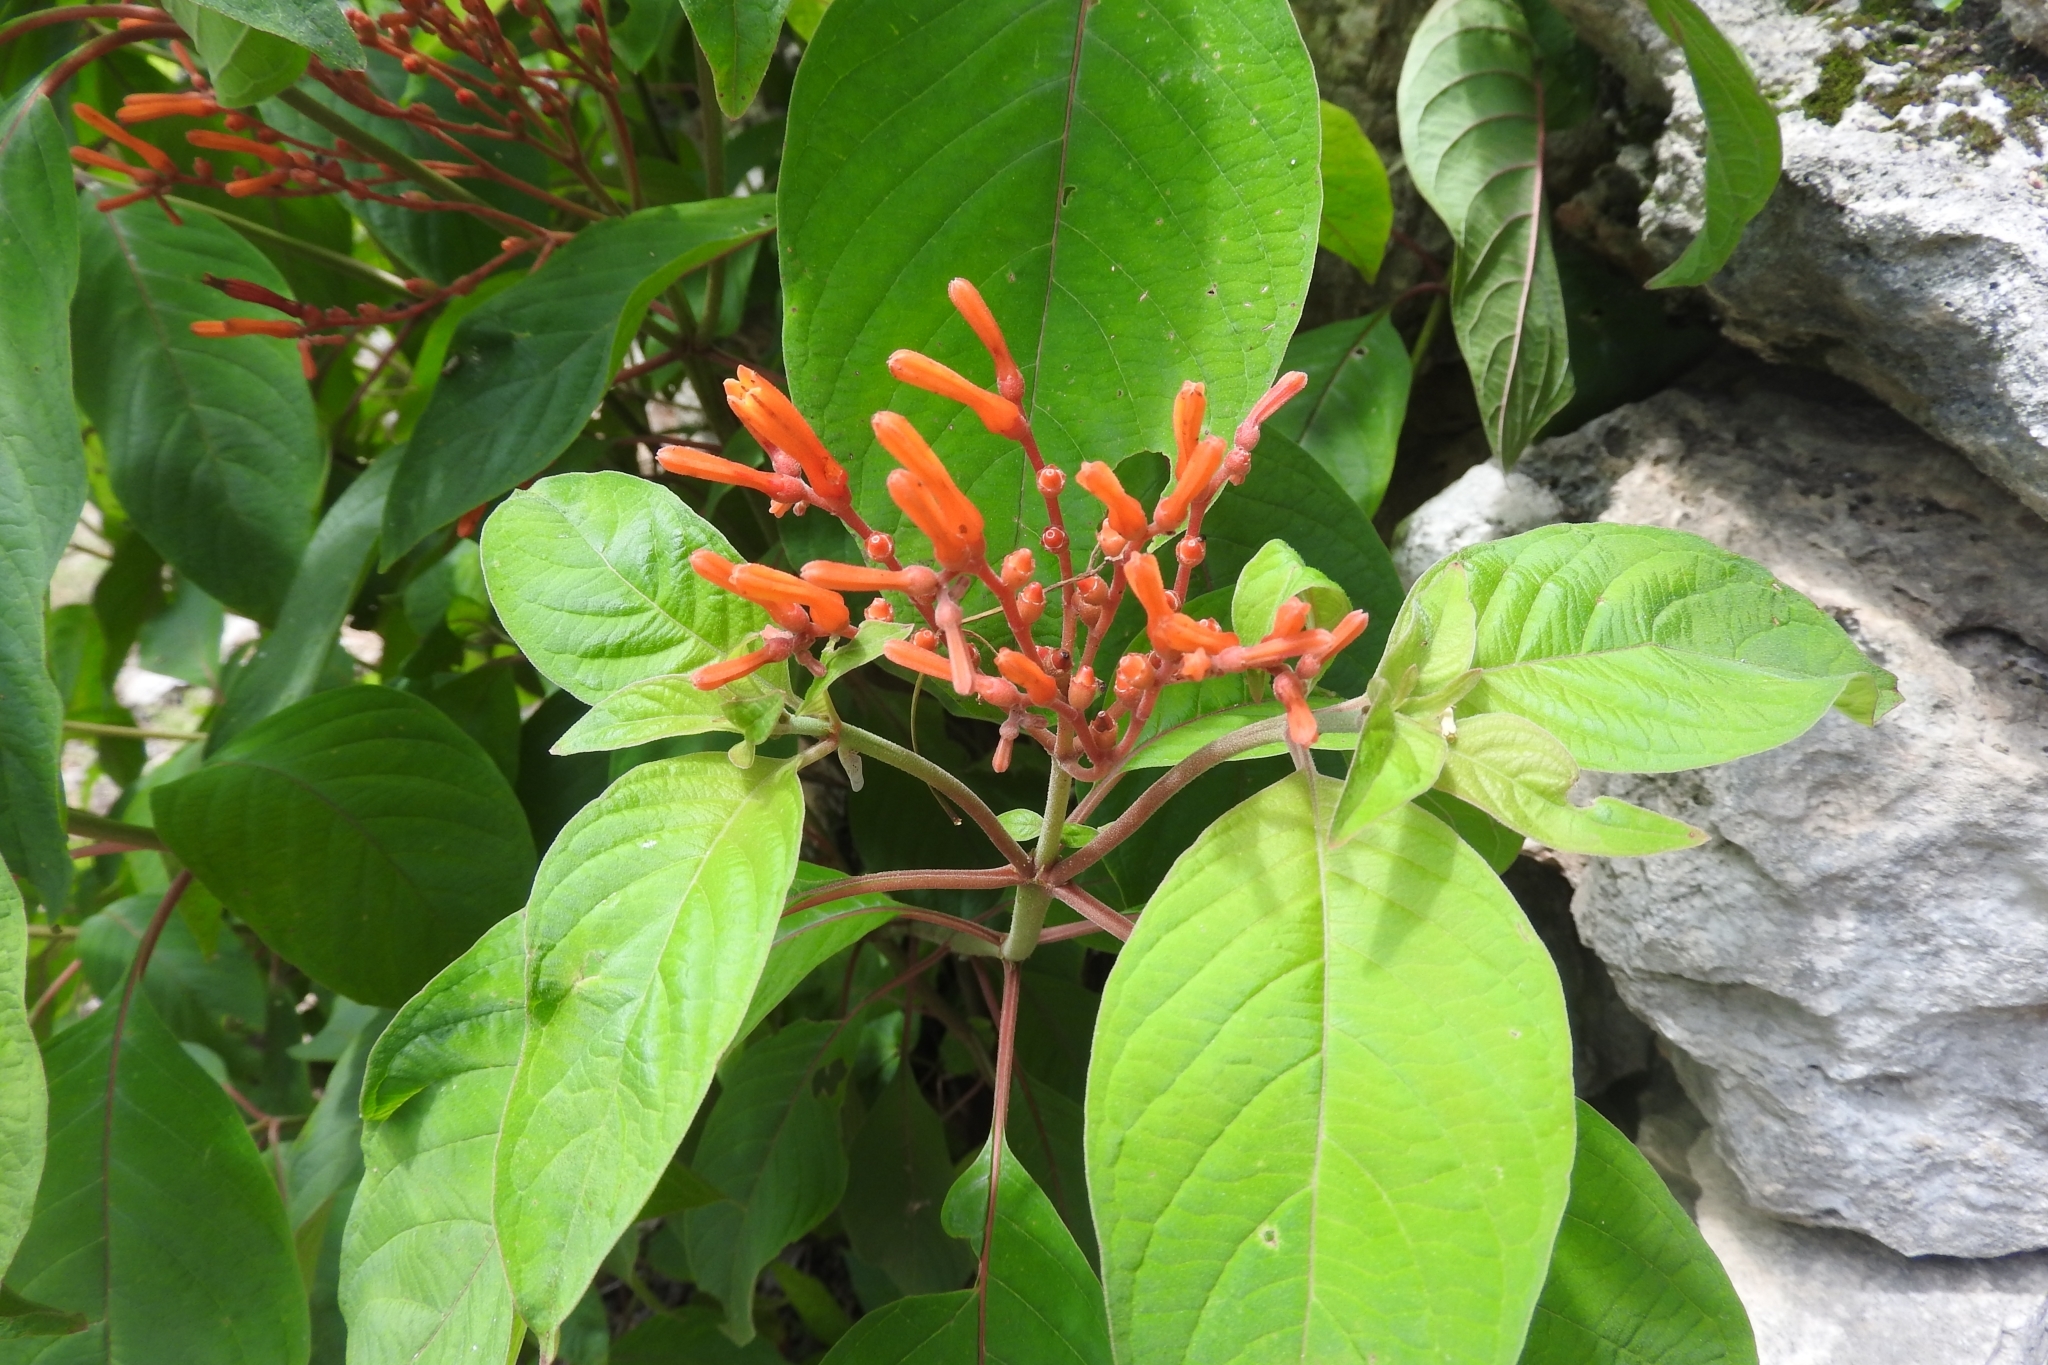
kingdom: Plantae
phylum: Tracheophyta
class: Magnoliopsida
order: Gentianales
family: Rubiaceae
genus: Hamelia
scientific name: Hamelia patens
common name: Redhead
